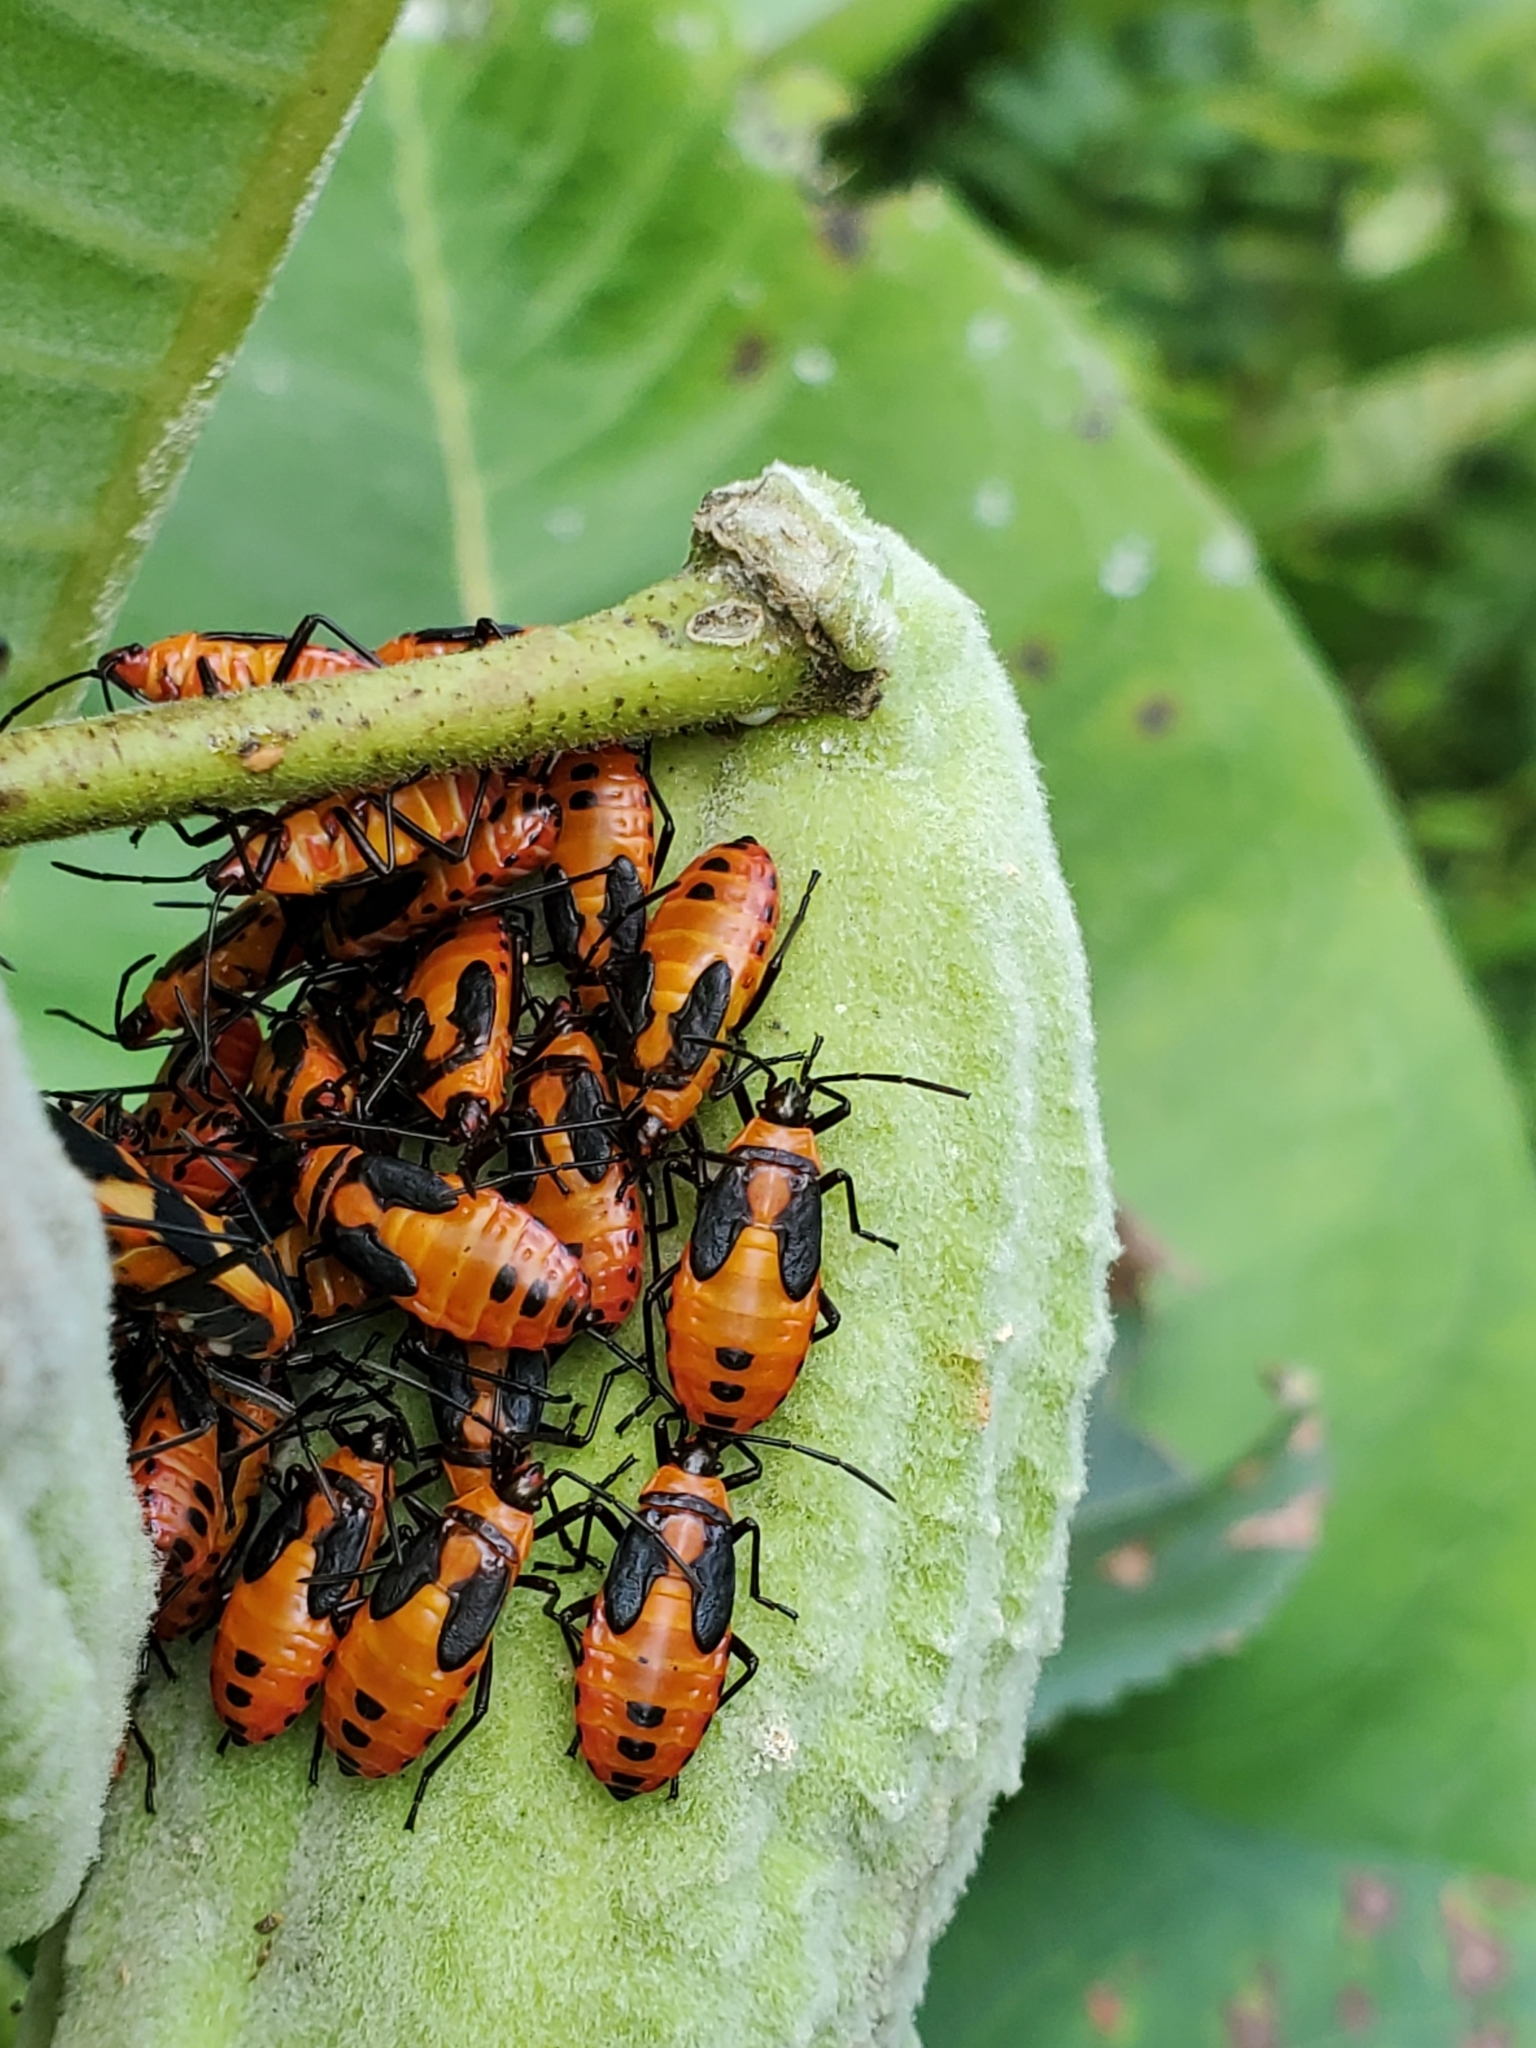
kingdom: Animalia
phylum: Arthropoda
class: Insecta
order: Hemiptera
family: Lygaeidae
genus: Oncopeltus
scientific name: Oncopeltus fasciatus
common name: Large milkweed bug
